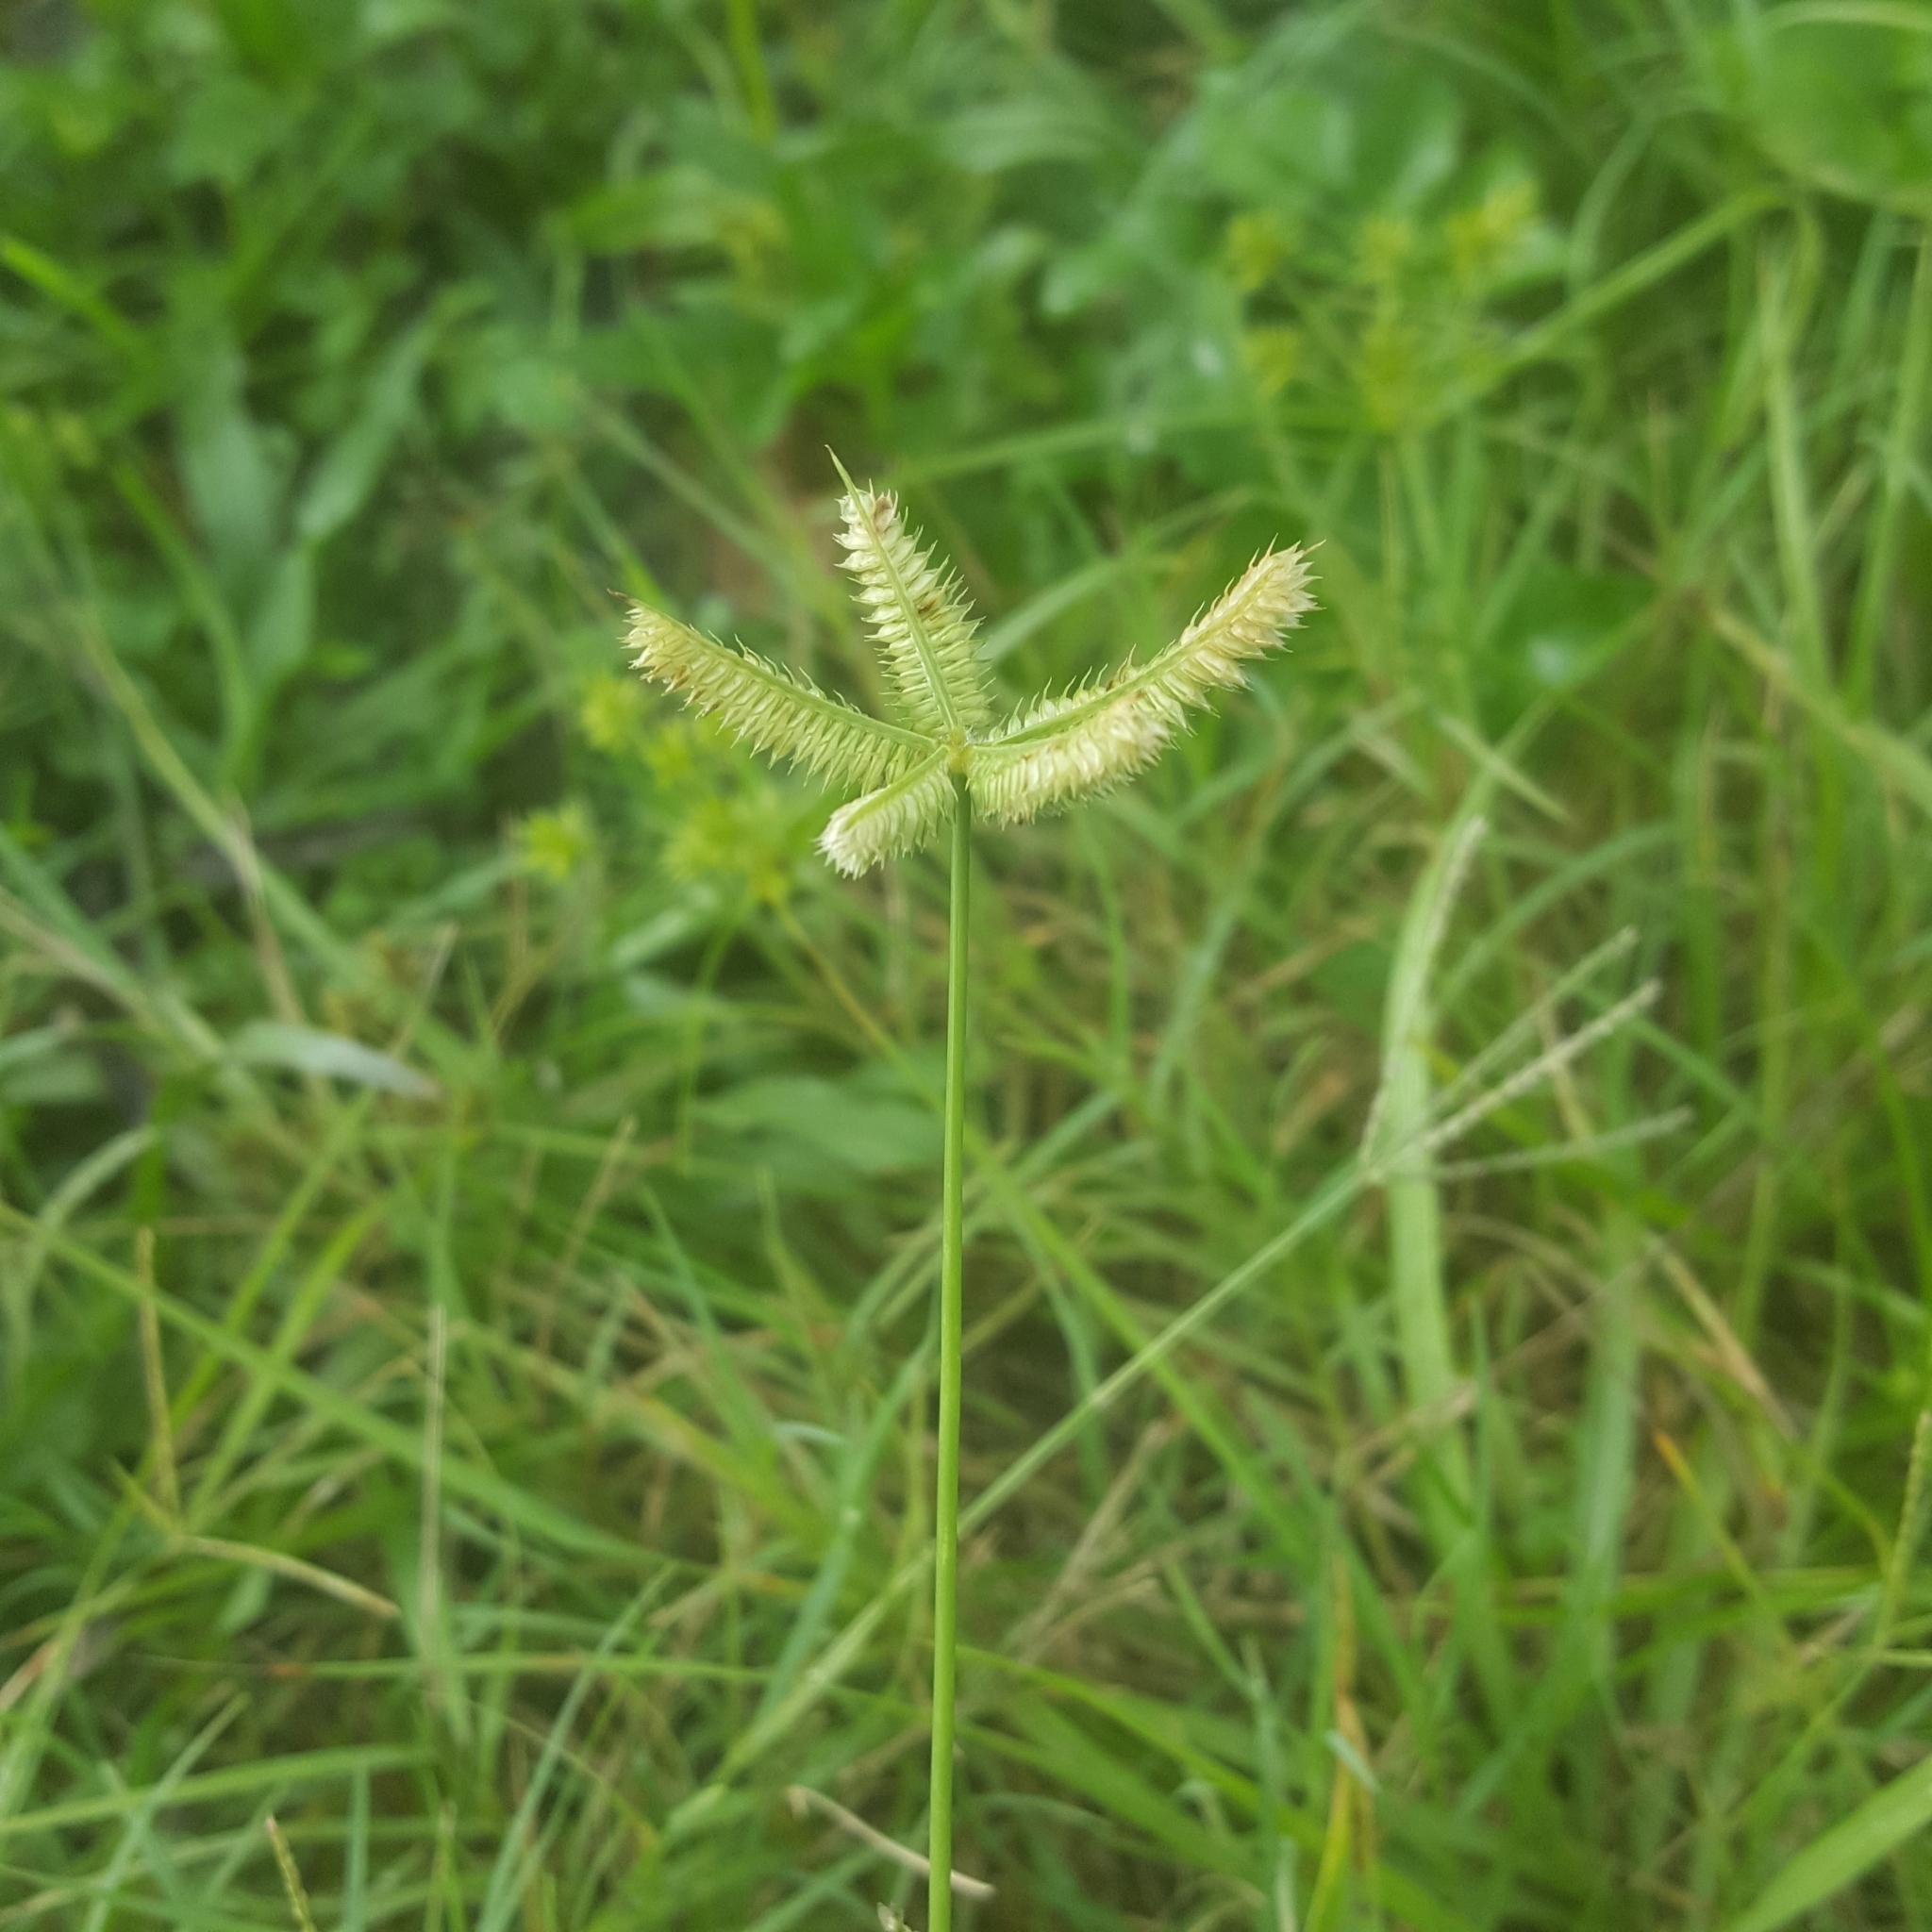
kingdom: Plantae
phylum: Tracheophyta
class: Liliopsida
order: Poales
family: Poaceae
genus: Dactyloctenium
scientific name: Dactyloctenium aegyptium
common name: Egyptian grass
